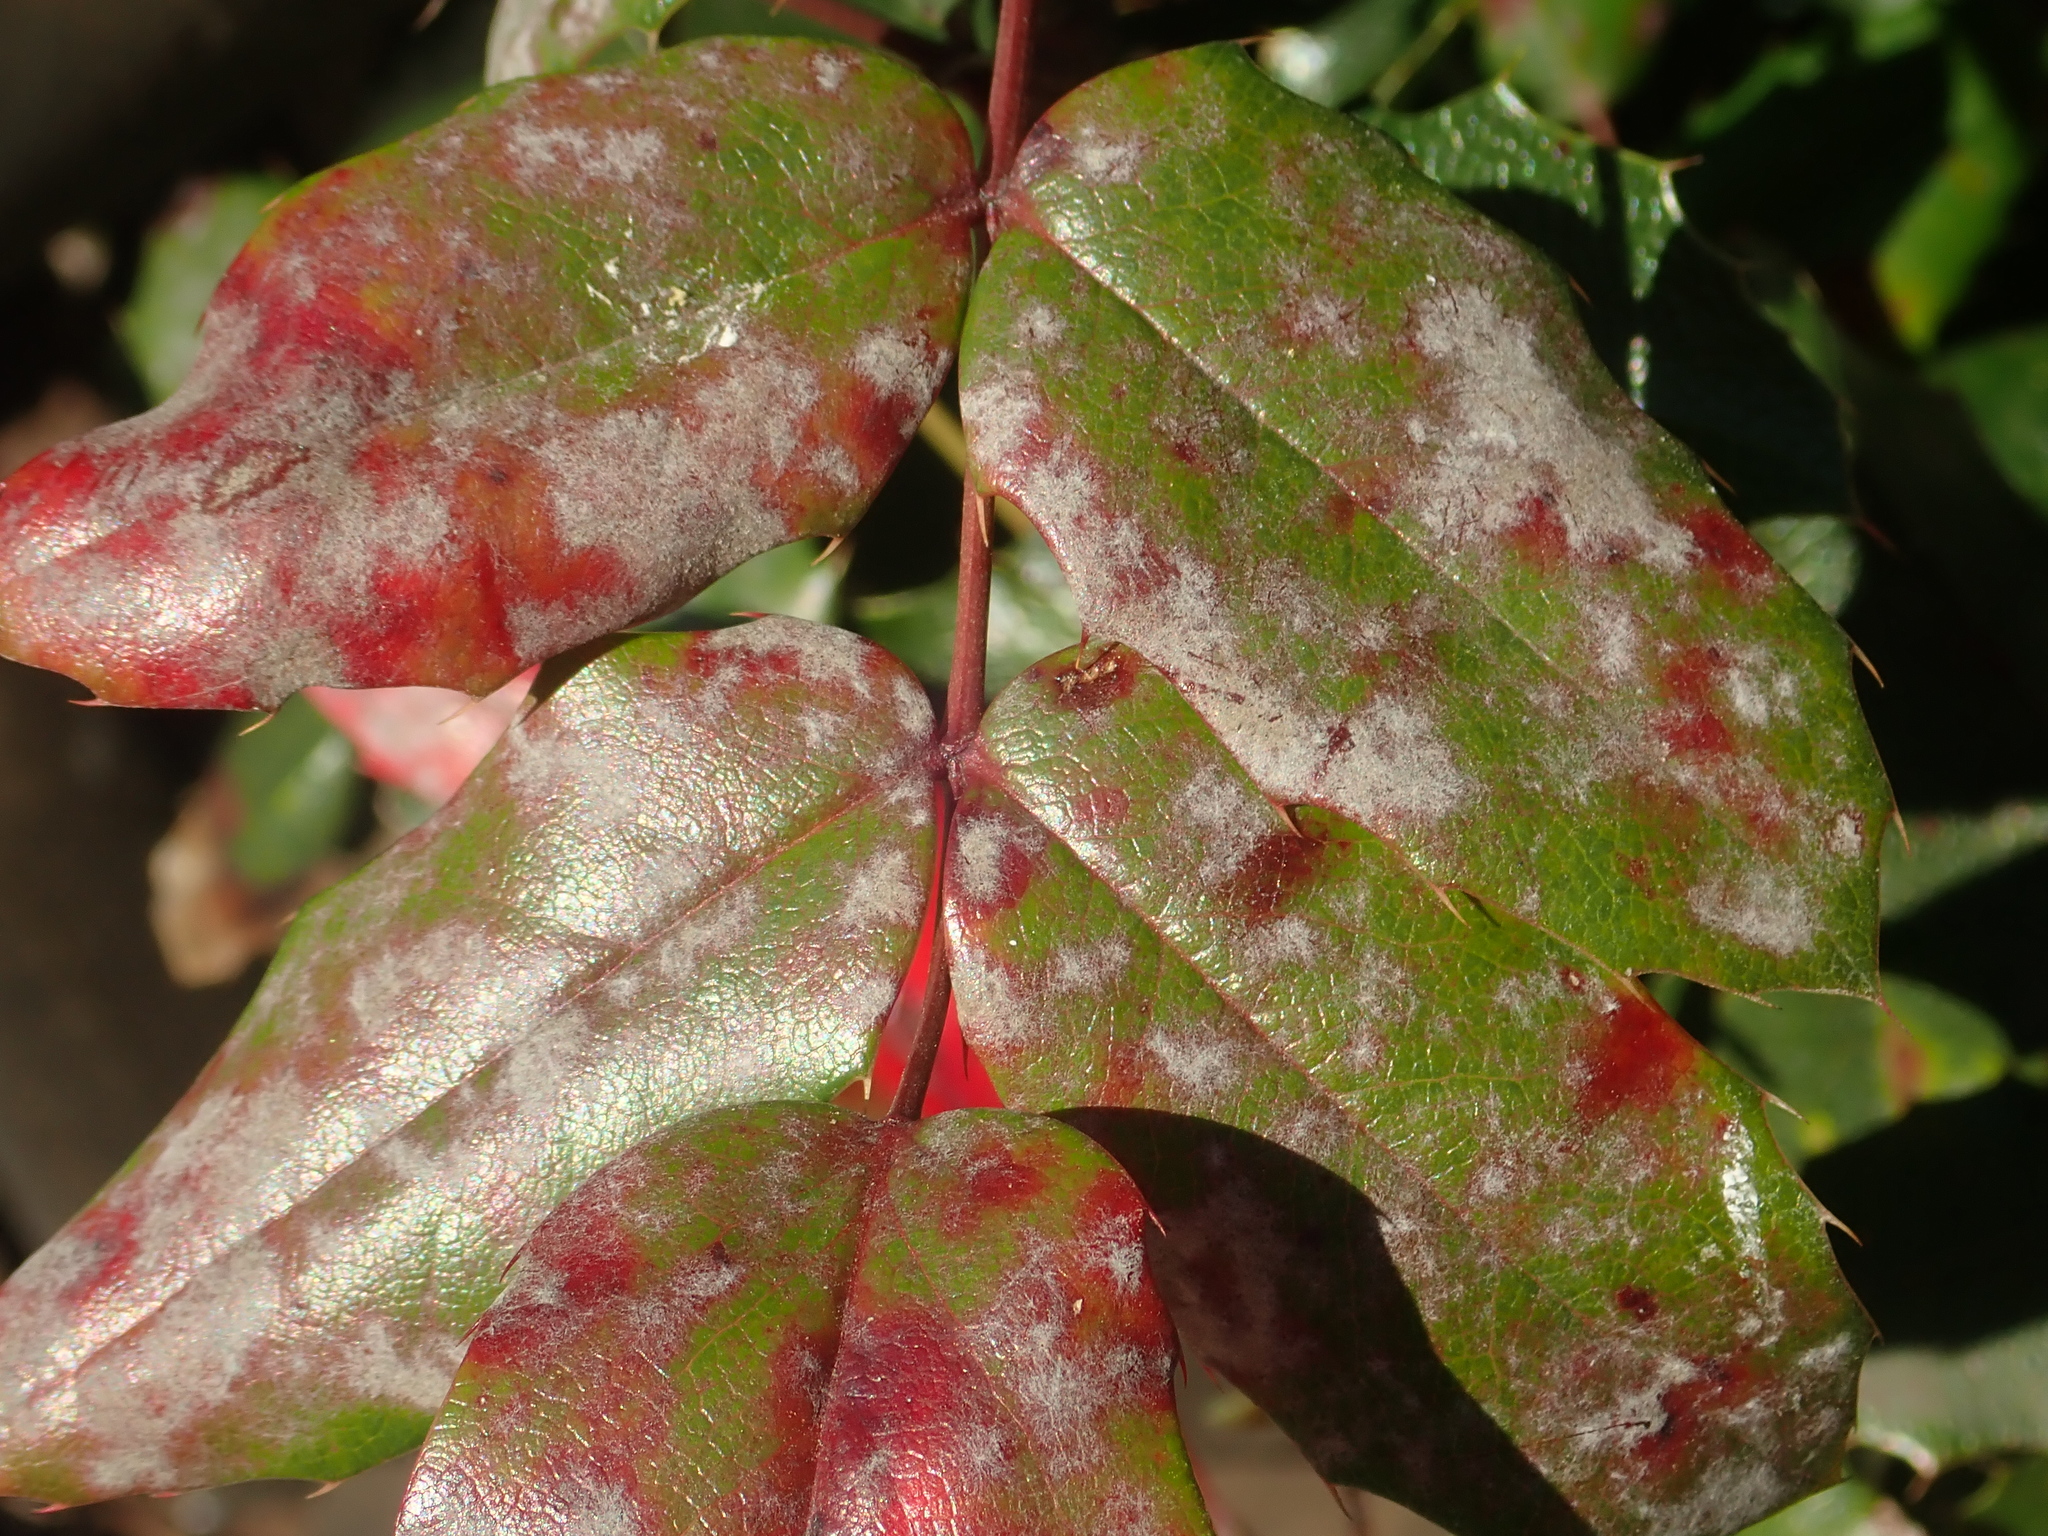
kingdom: Fungi
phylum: Ascomycota
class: Leotiomycetes
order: Helotiales
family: Erysiphaceae
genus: Erysiphe
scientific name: Erysiphe berberidis
